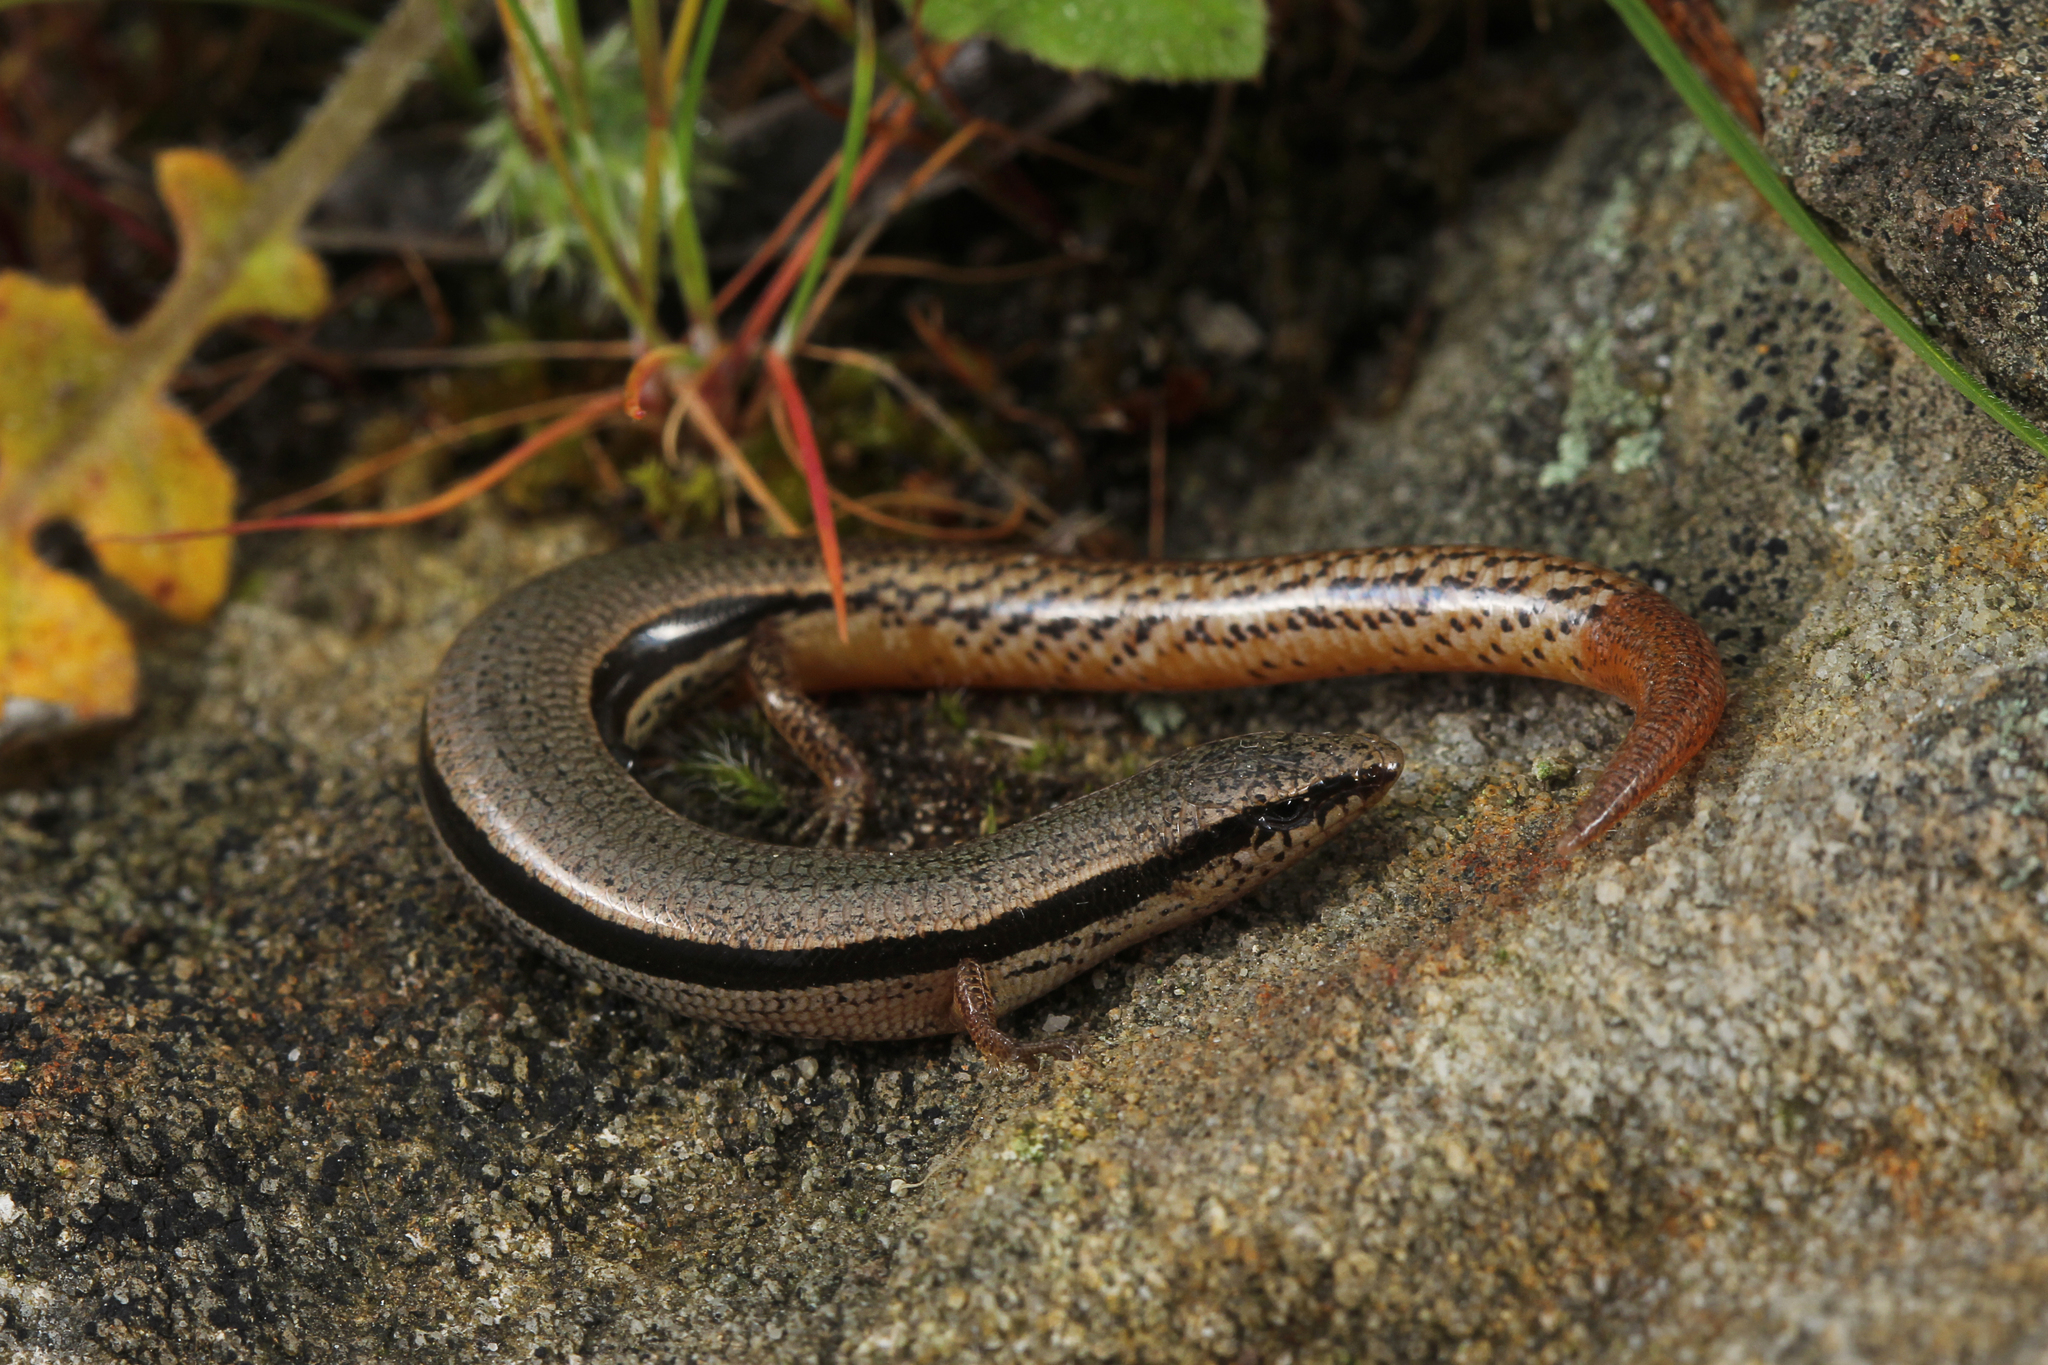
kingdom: Animalia
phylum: Chordata
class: Squamata
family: Scincidae
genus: Lerista
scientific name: Lerista bougainvillii
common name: South-eastern slider
